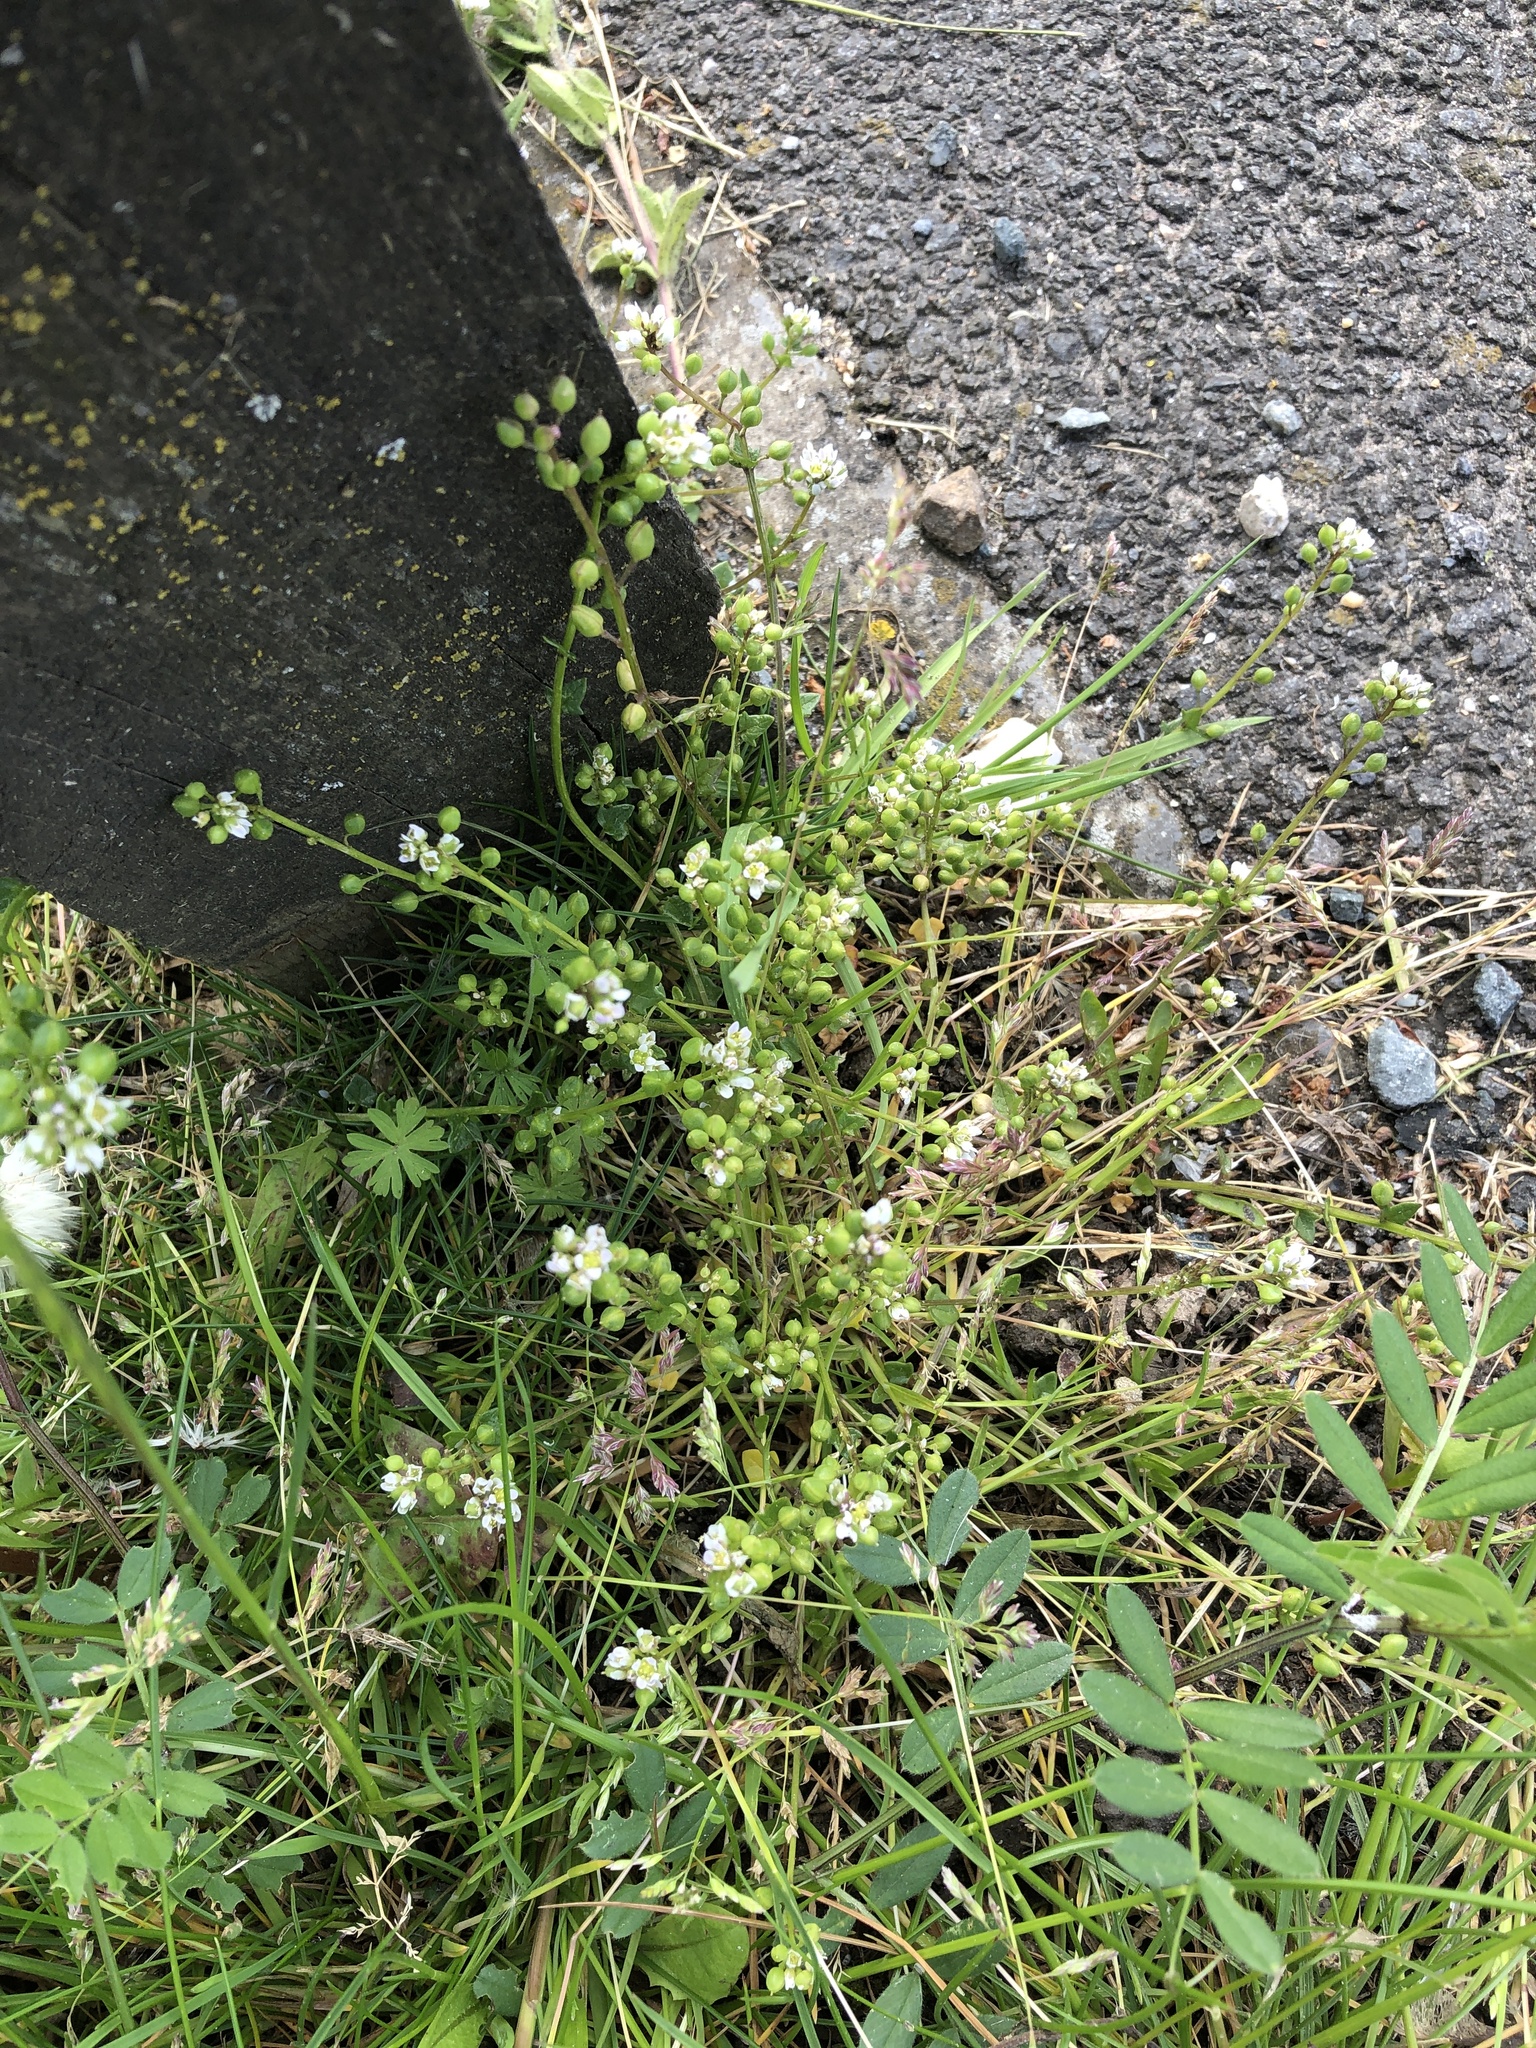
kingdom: Plantae
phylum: Tracheophyta
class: Magnoliopsida
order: Brassicales
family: Brassicaceae
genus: Cochlearia
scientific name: Cochlearia danica
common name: Early scurvygrass
